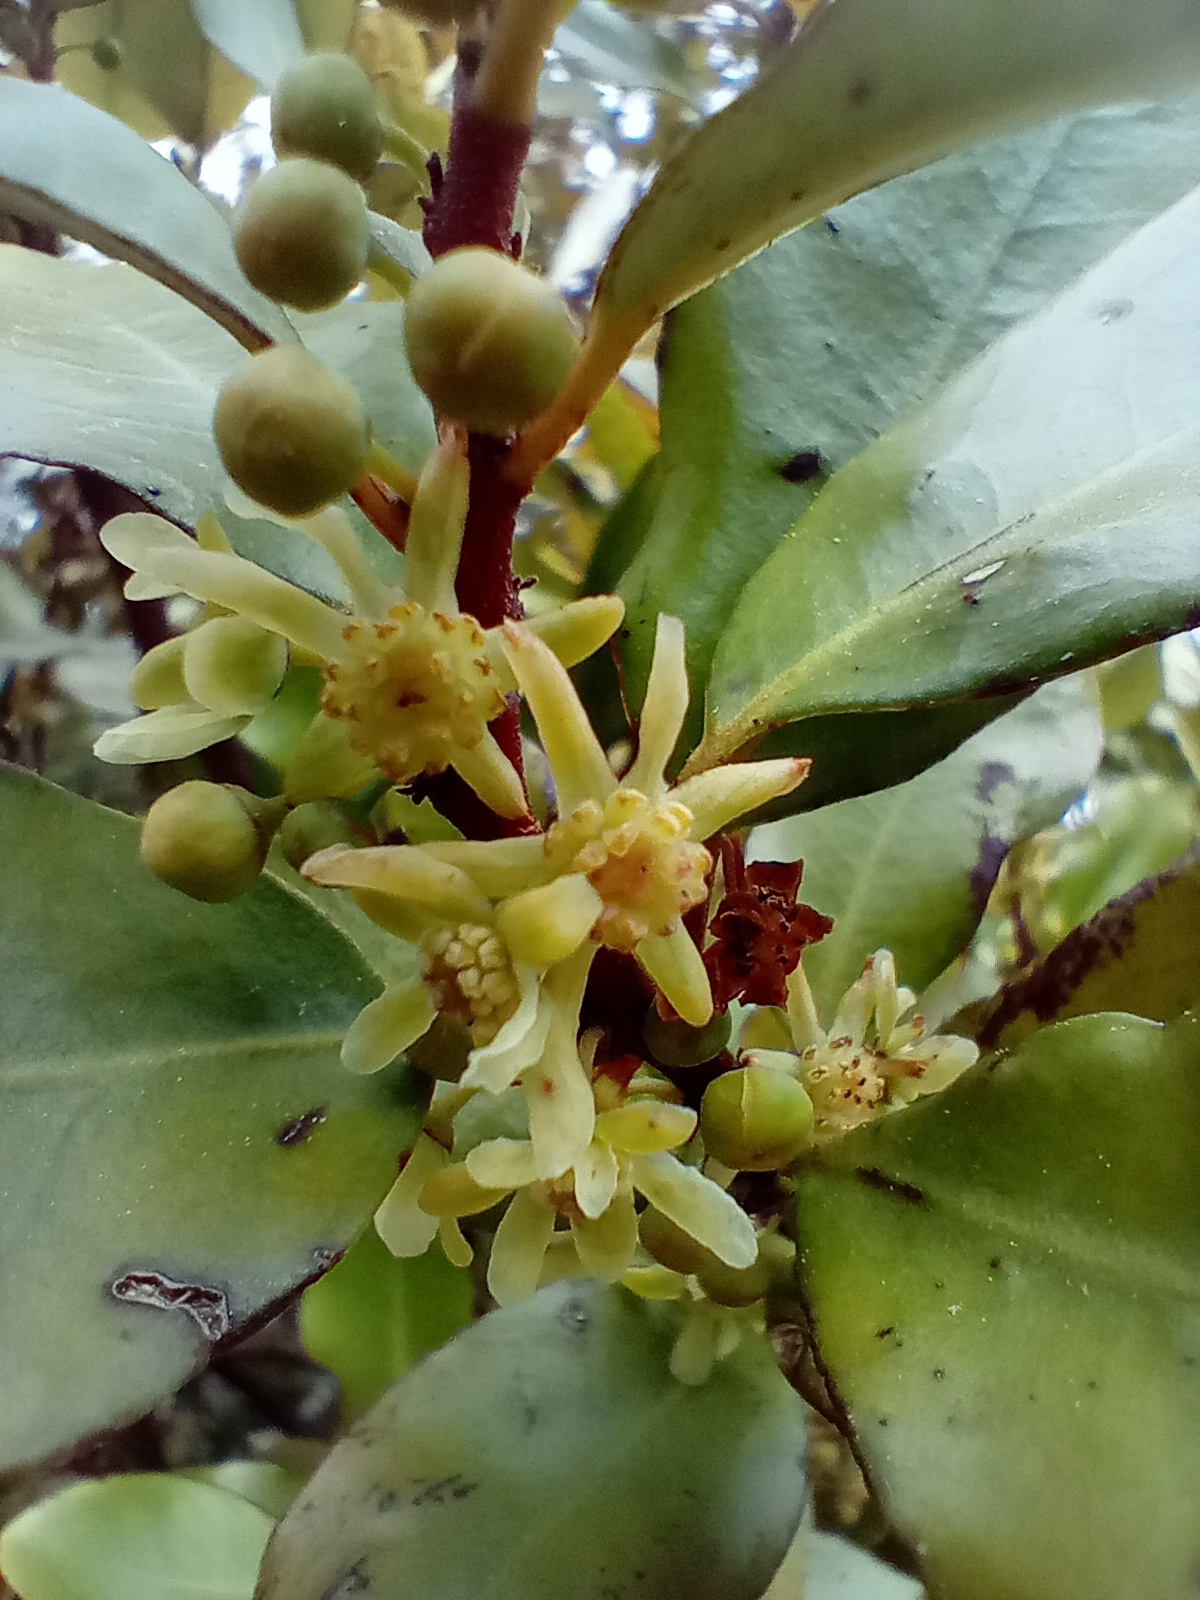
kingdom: Plantae
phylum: Tracheophyta
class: Magnoliopsida
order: Canellales
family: Winteraceae
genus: Pseudowintera
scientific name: Pseudowintera colorata
